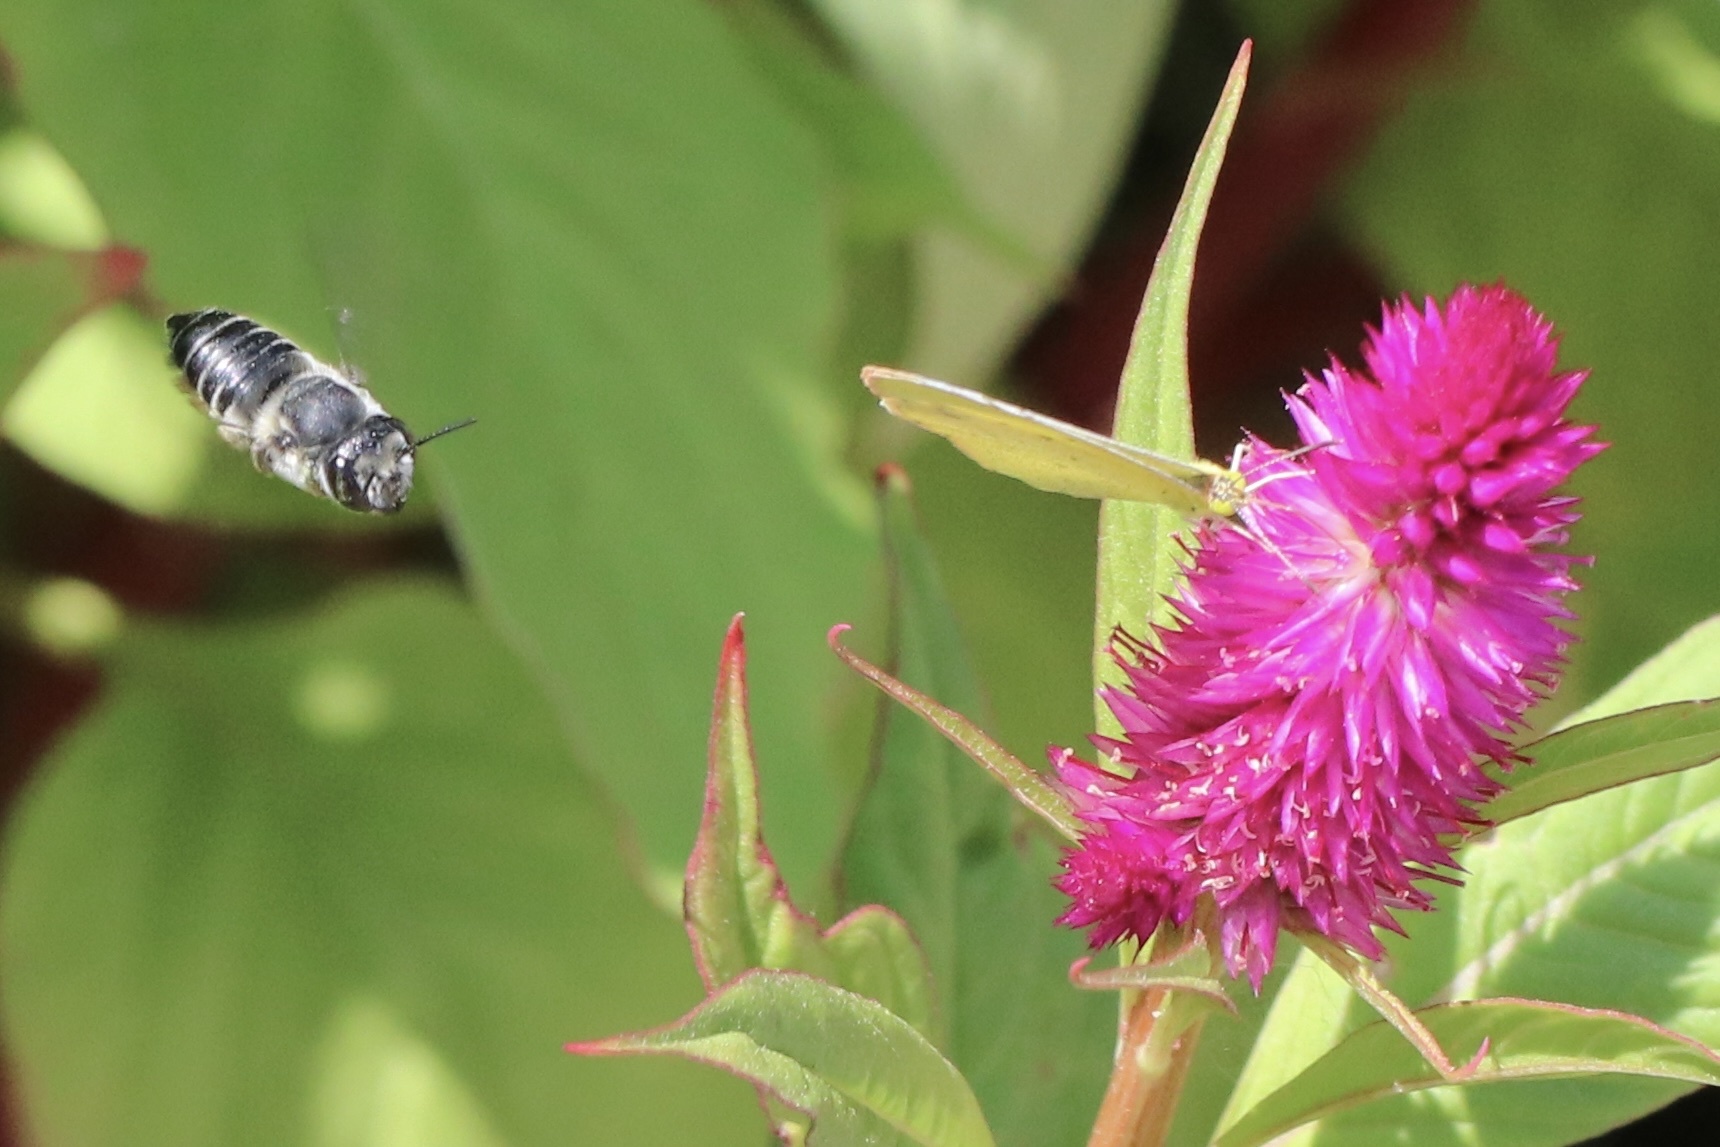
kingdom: Animalia
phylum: Arthropoda
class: Insecta
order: Lepidoptera
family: Pieridae
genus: Pyrisitia
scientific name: Pyrisitia lisa
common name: Little yellow
